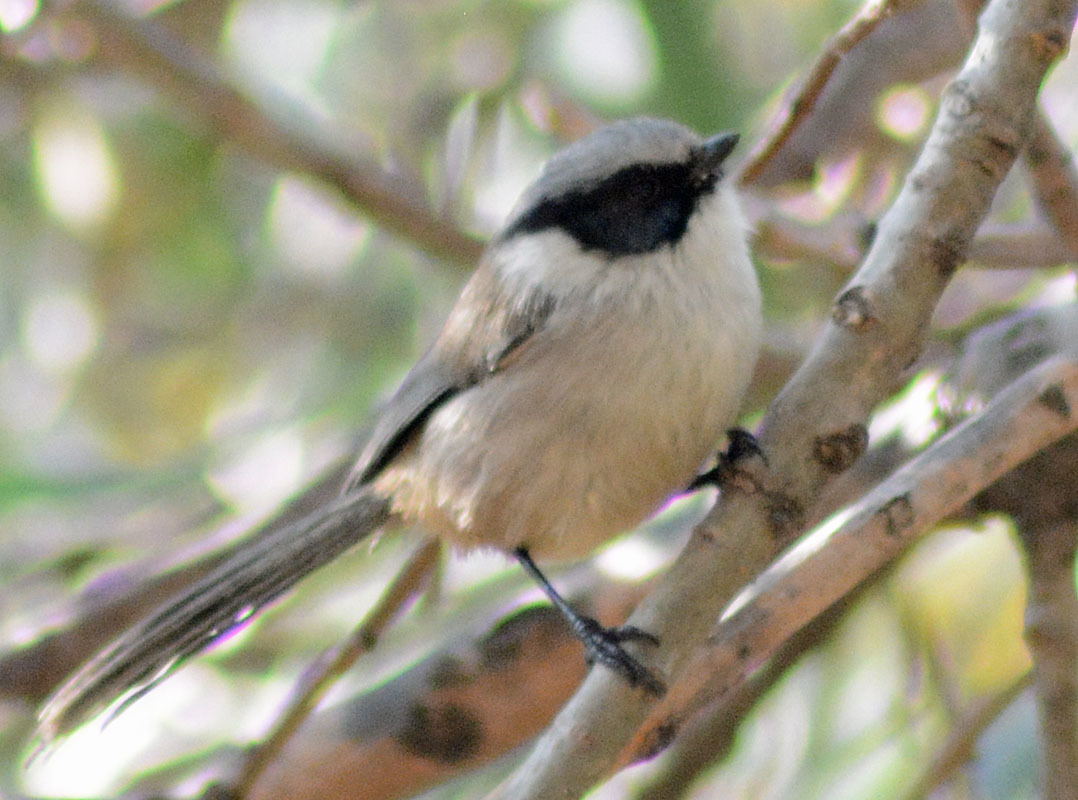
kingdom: Animalia
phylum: Chordata
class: Aves
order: Passeriformes
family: Aegithalidae
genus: Psaltriparus
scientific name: Psaltriparus minimus
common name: American bushtit
